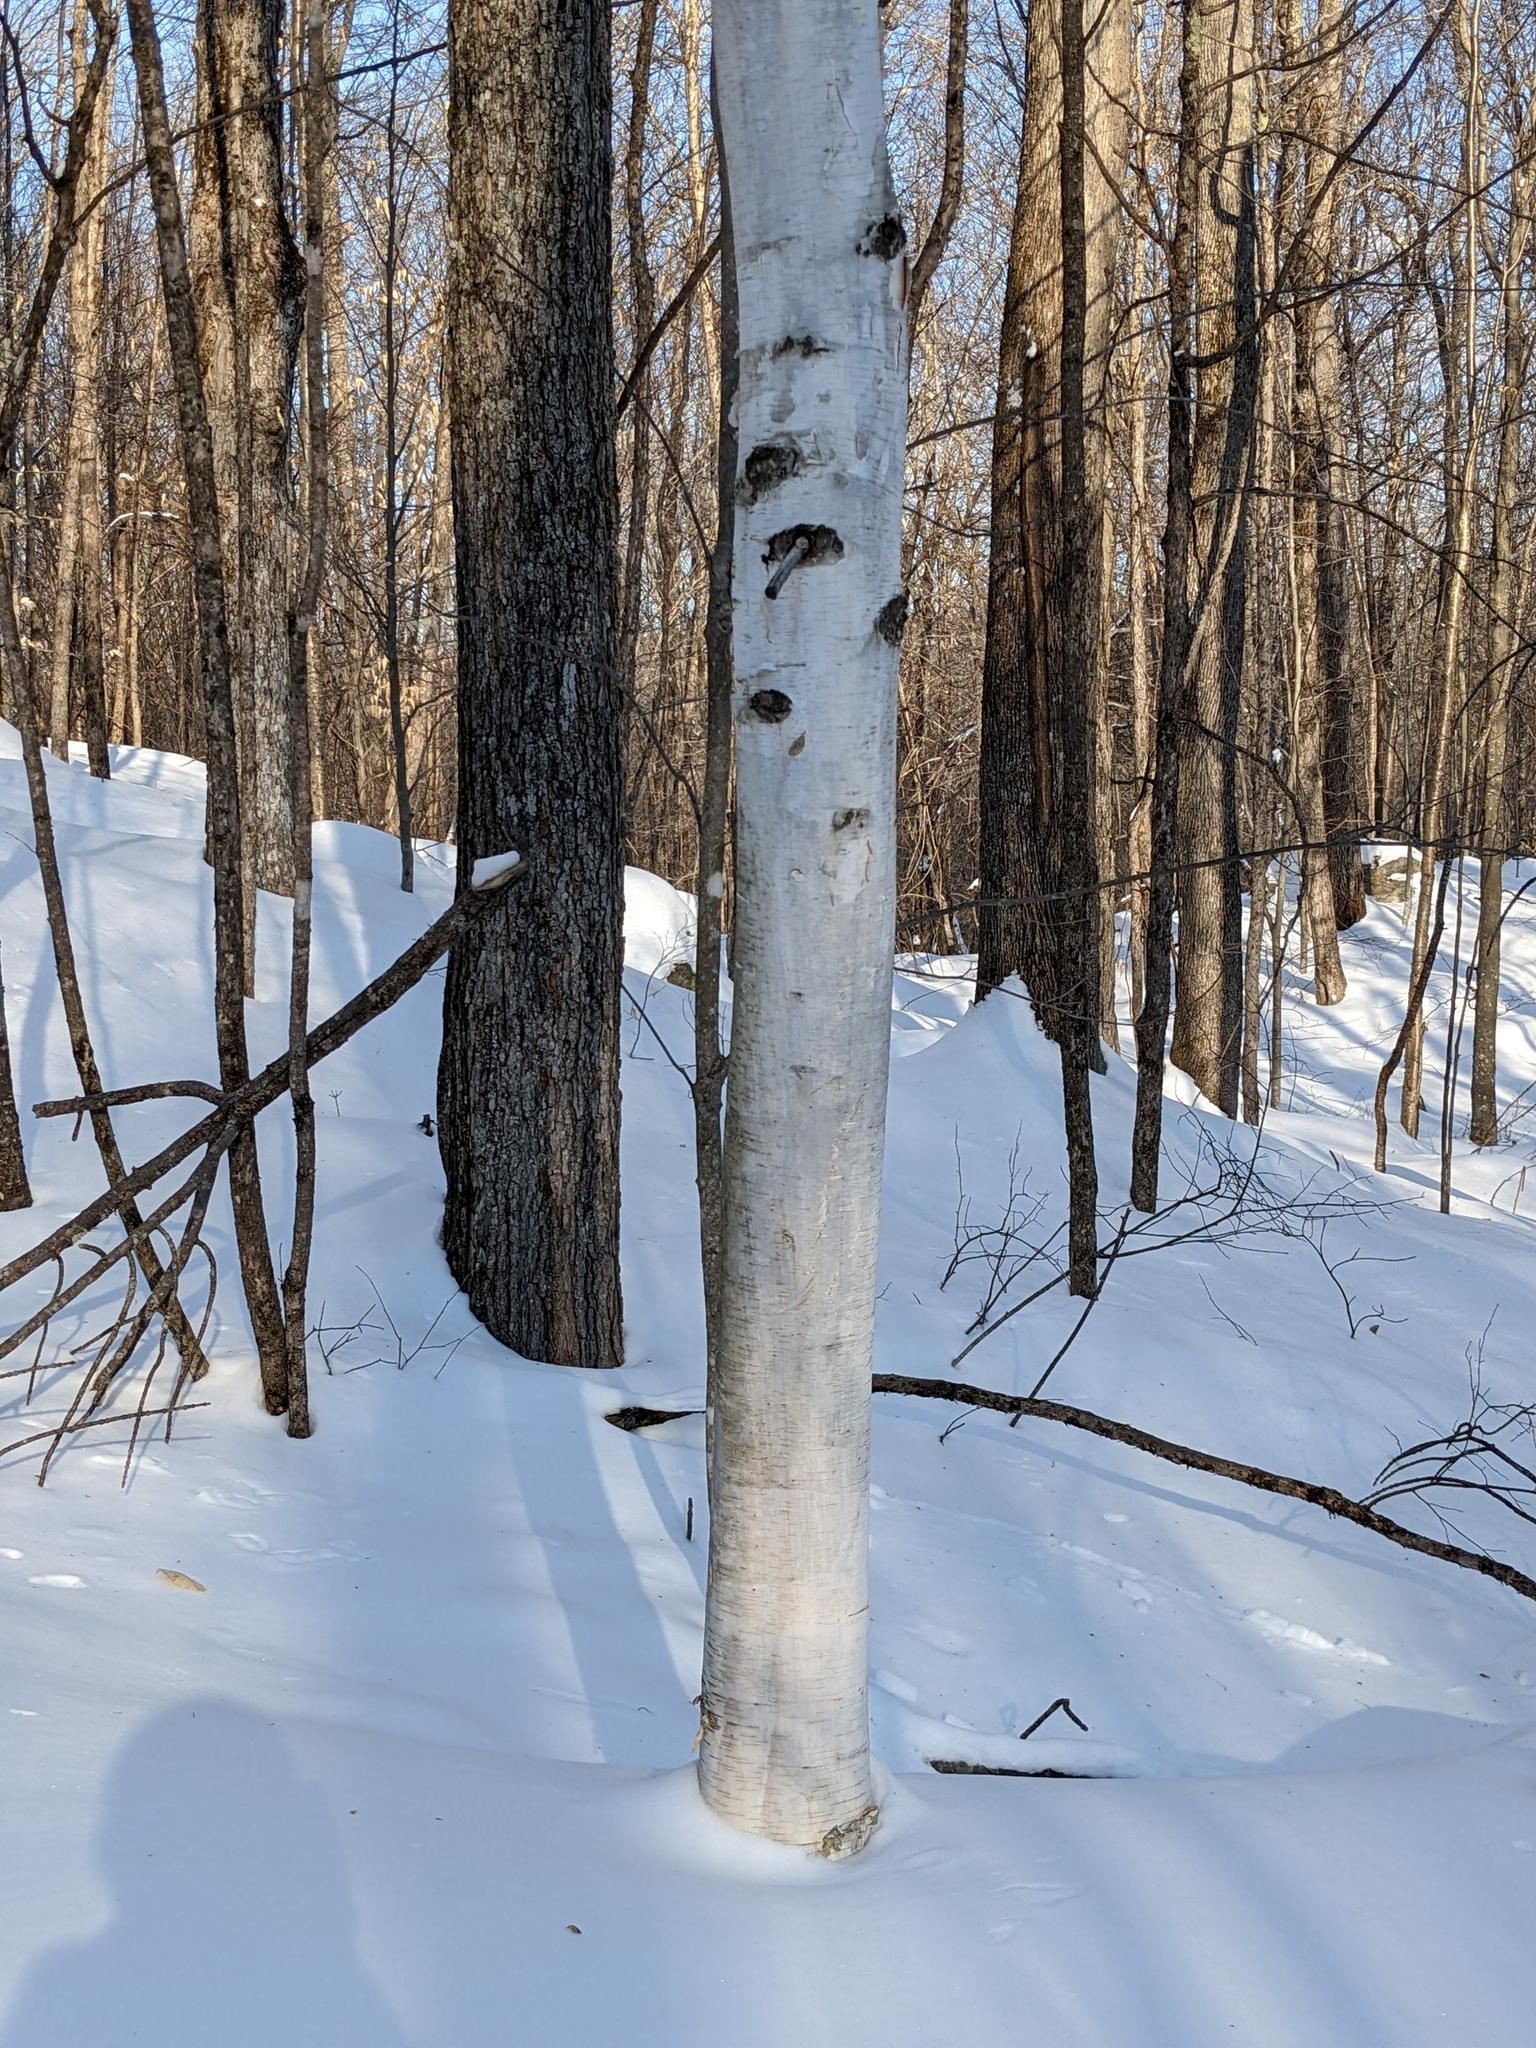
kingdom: Plantae
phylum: Tracheophyta
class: Magnoliopsida
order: Fagales
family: Betulaceae
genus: Betula
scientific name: Betula papyrifera
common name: Paper birch
